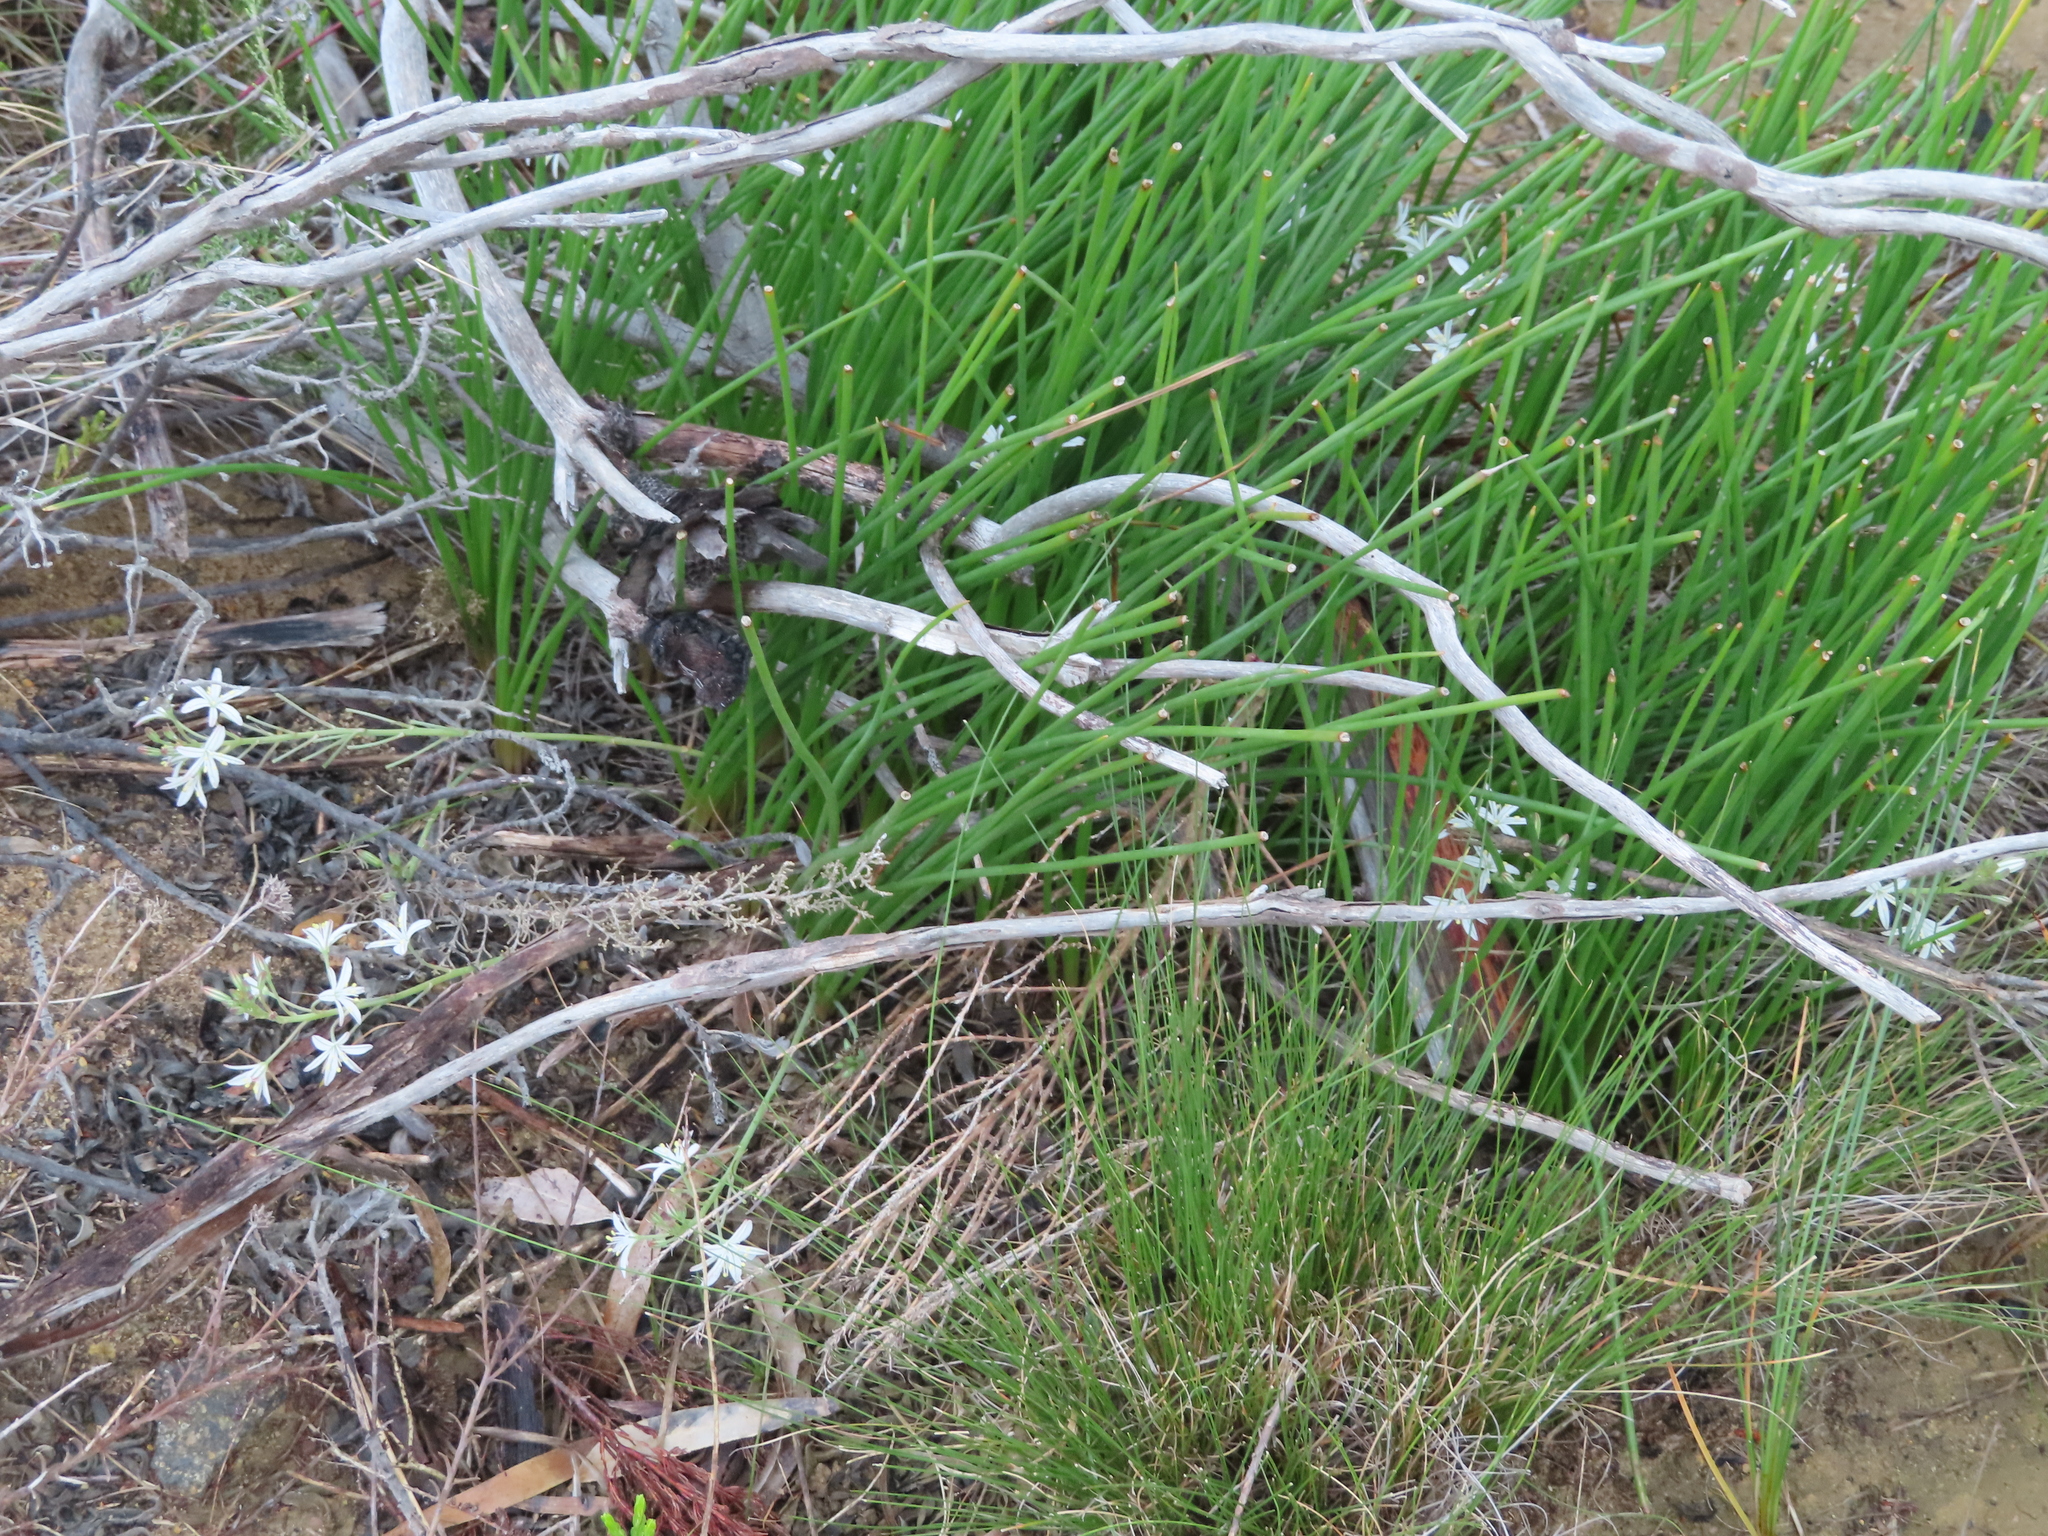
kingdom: Plantae
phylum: Tracheophyta
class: Liliopsida
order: Asparagales
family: Asphodelaceae
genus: Trachyandra
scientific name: Trachyandra chlamydophylla
